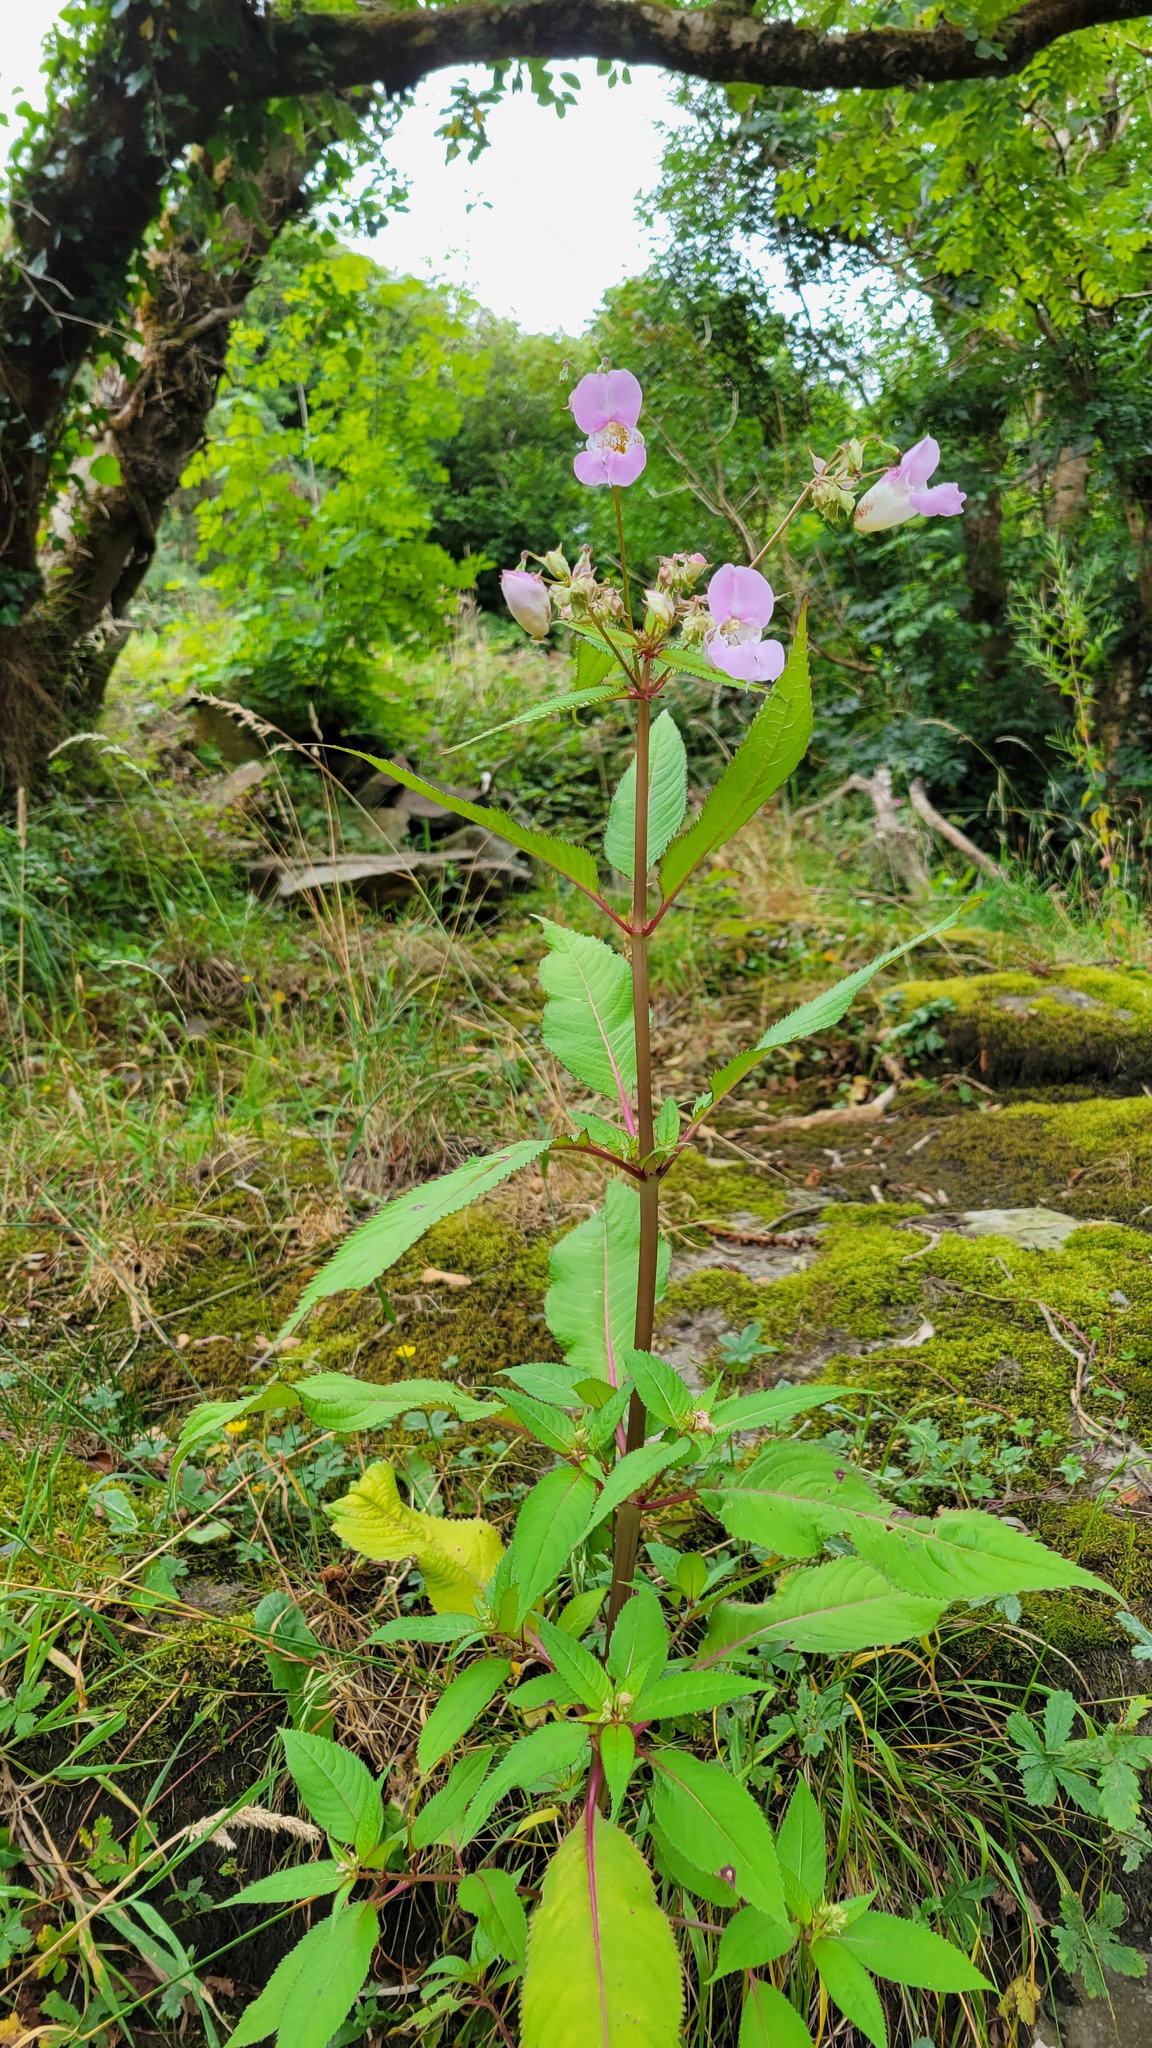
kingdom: Plantae
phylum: Tracheophyta
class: Magnoliopsida
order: Ericales
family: Balsaminaceae
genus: Impatiens
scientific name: Impatiens glandulifera
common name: Himalayan balsam
